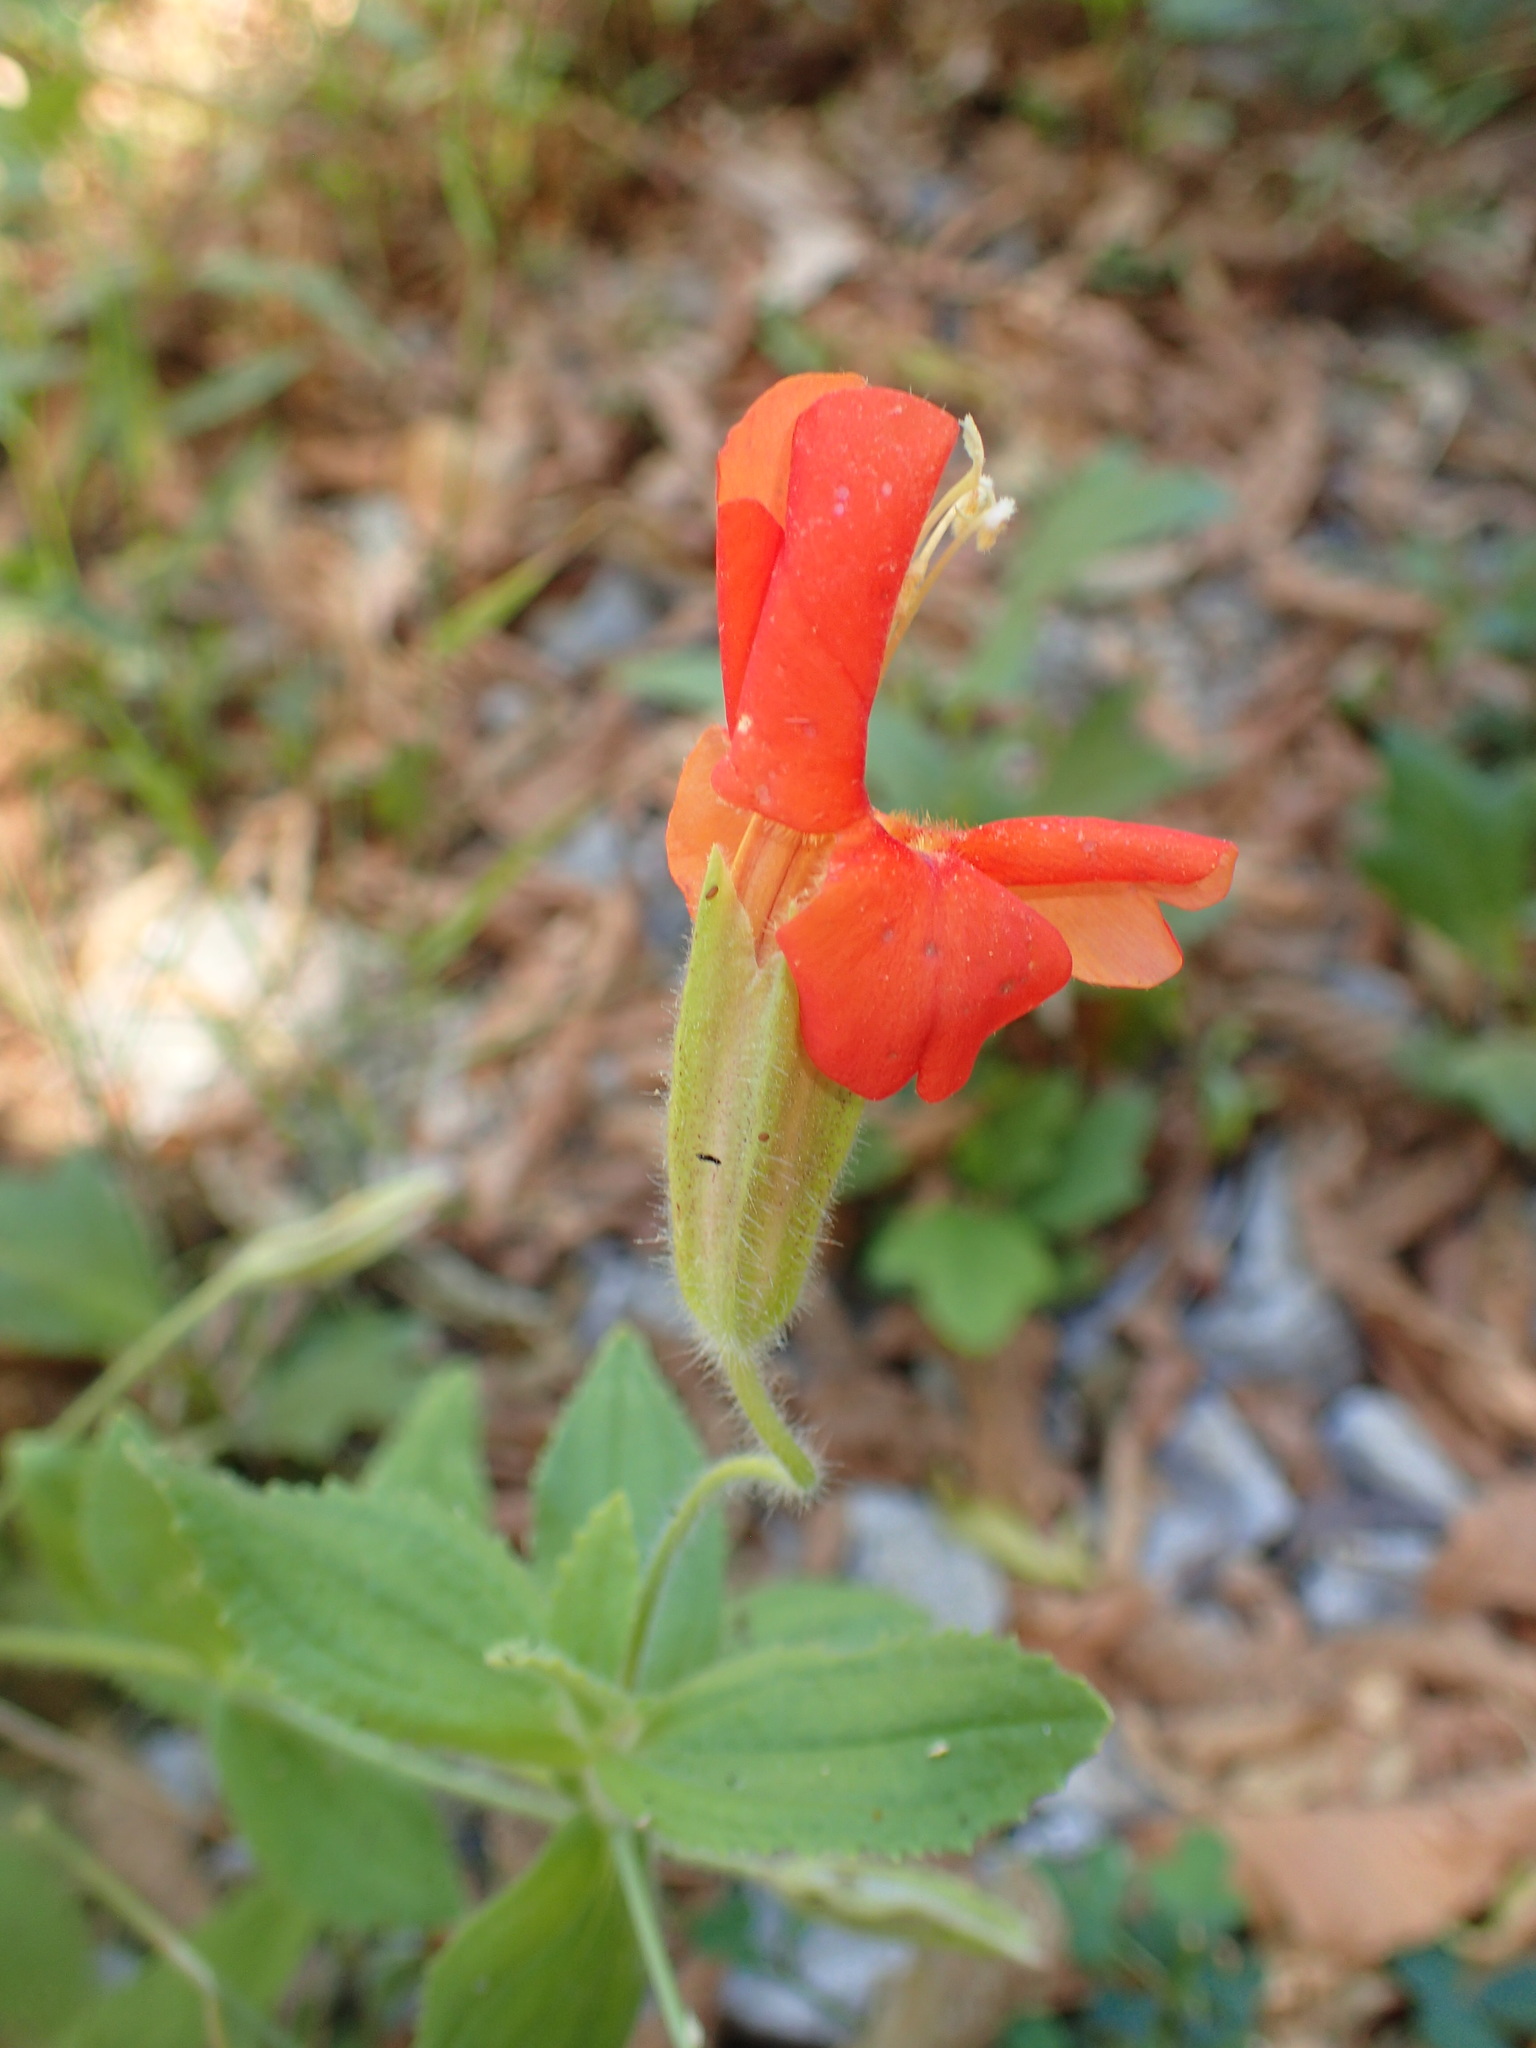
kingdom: Plantae
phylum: Tracheophyta
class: Magnoliopsida
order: Lamiales
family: Phrymaceae
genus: Erythranthe
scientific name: Erythranthe cardinalis
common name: Scarlet monkey-flower
